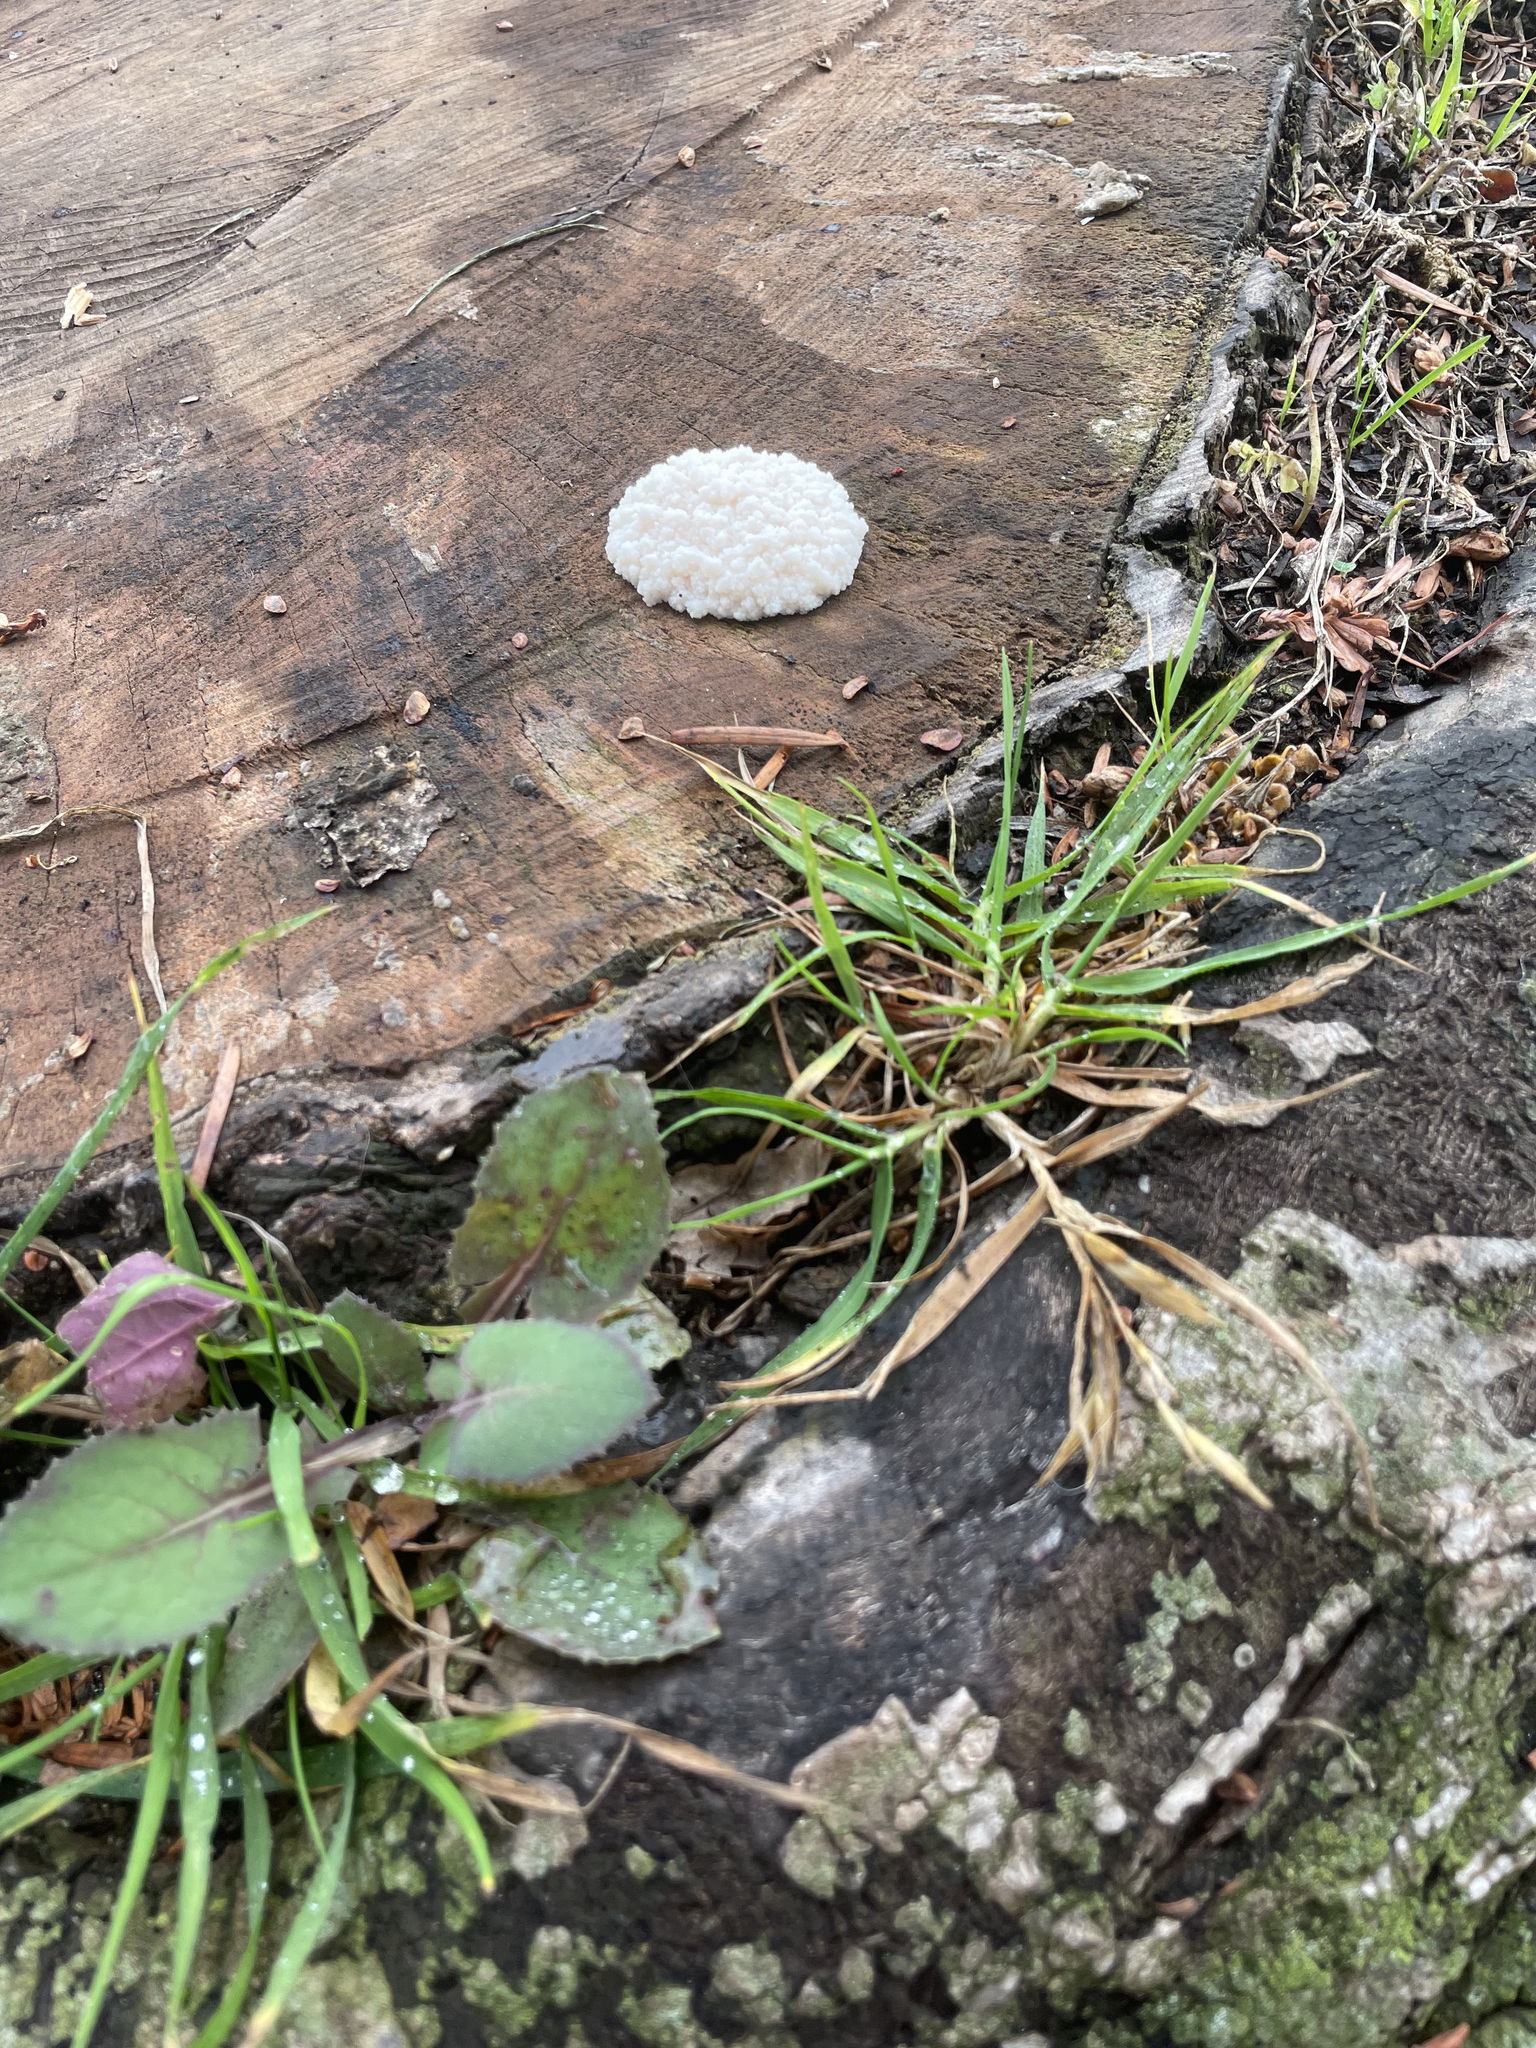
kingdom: Protozoa
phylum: Mycetozoa
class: Myxomycetes
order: Cribrariales
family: Tubiferaceae
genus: Reticularia
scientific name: Reticularia lycoperdon
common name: False puffball
